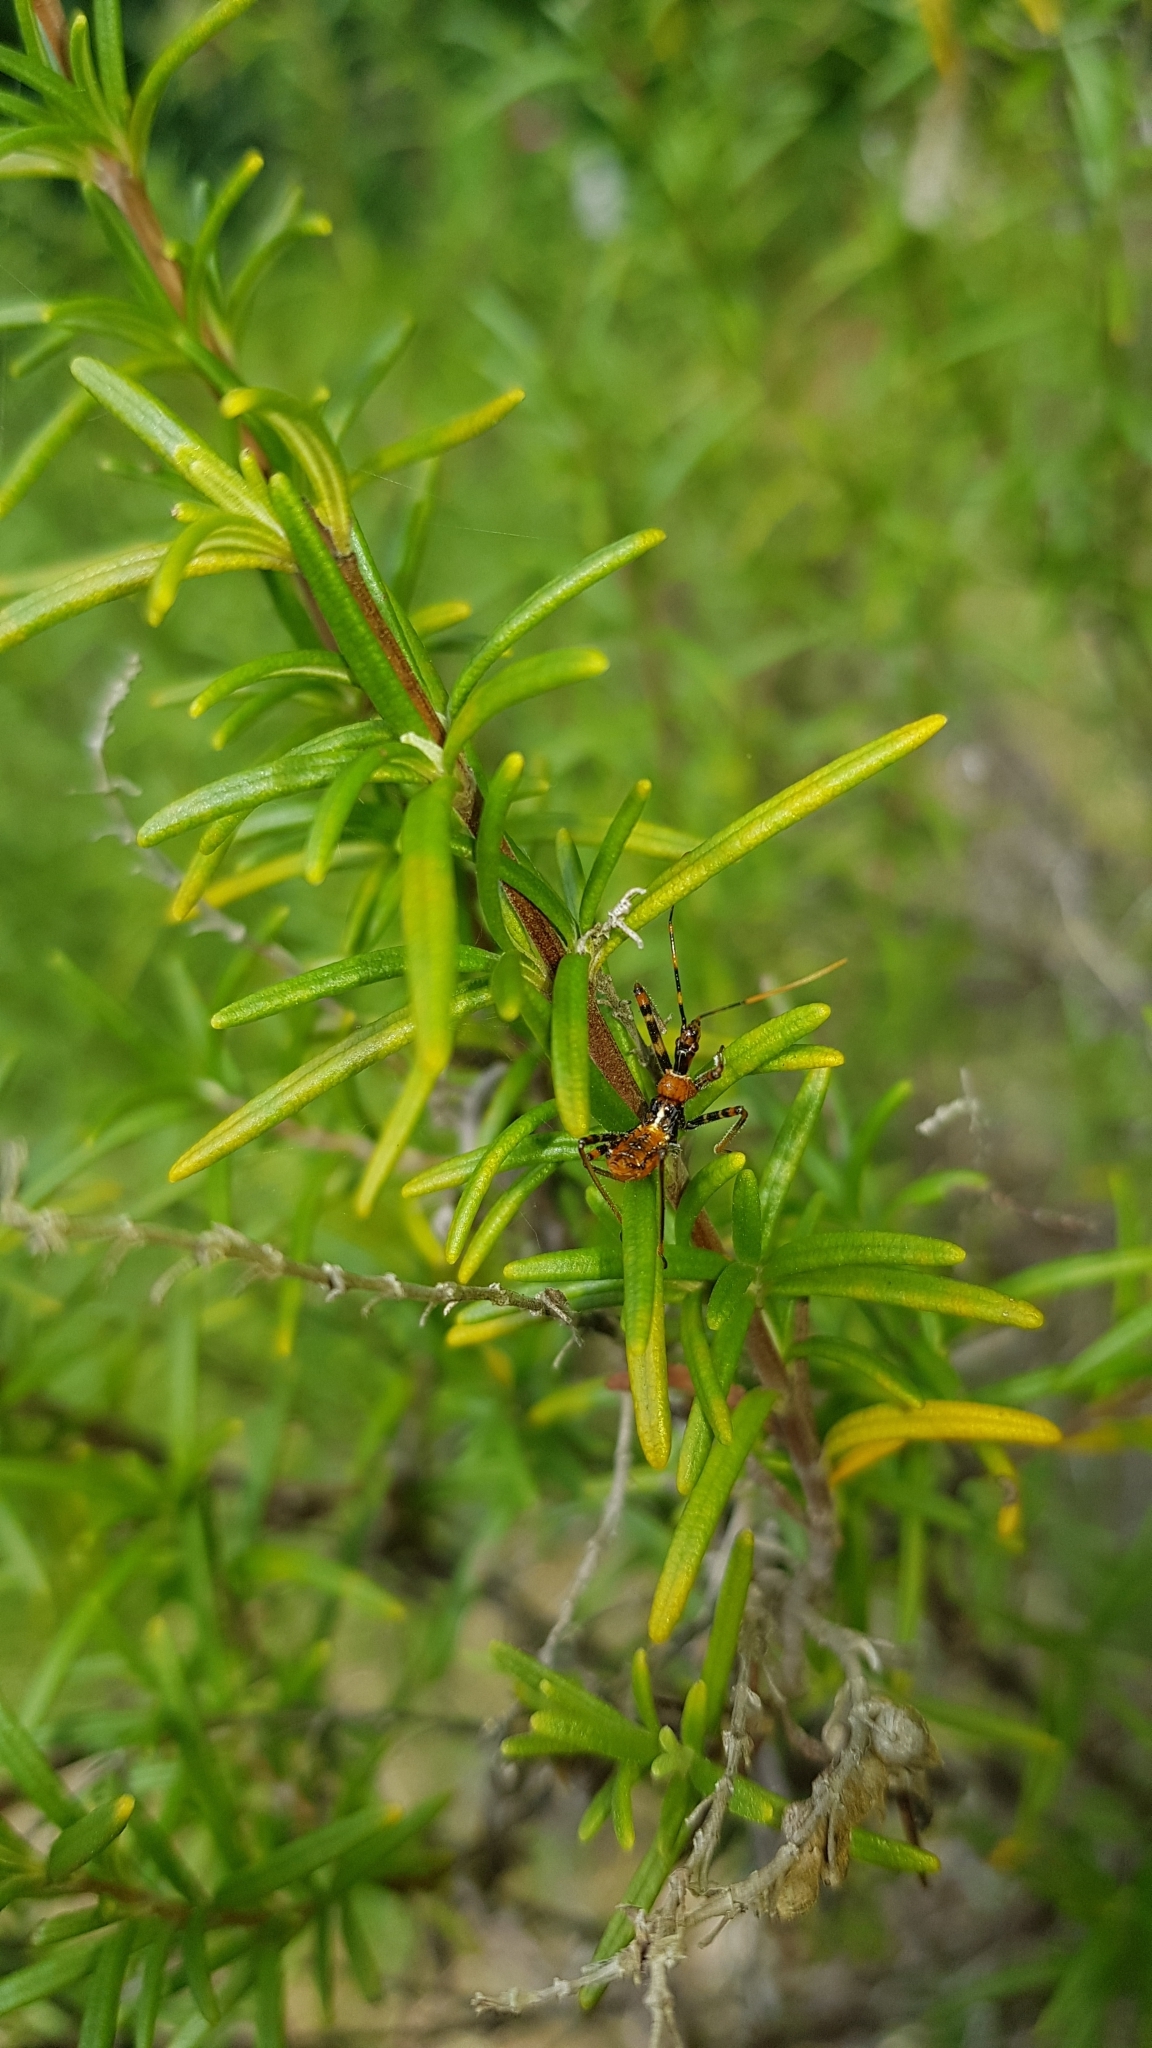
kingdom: Animalia
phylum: Arthropoda
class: Insecta
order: Hemiptera
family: Reduviidae
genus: Pristhesancus
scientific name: Pristhesancus plagipennis
